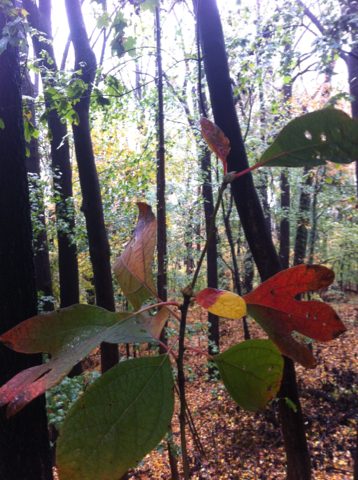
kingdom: Plantae
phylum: Tracheophyta
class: Magnoliopsida
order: Laurales
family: Lauraceae
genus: Sassafras
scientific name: Sassafras albidum
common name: Sassafras
